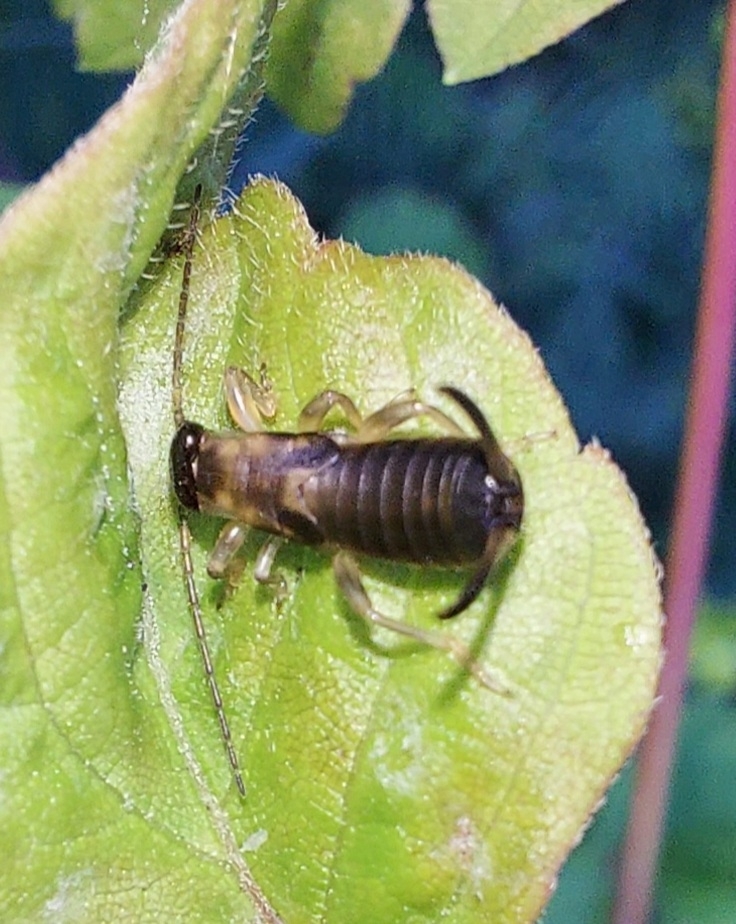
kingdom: Animalia
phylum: Arthropoda
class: Insecta
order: Dermaptera
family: Forficulidae
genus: Forficula
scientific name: Forficula
